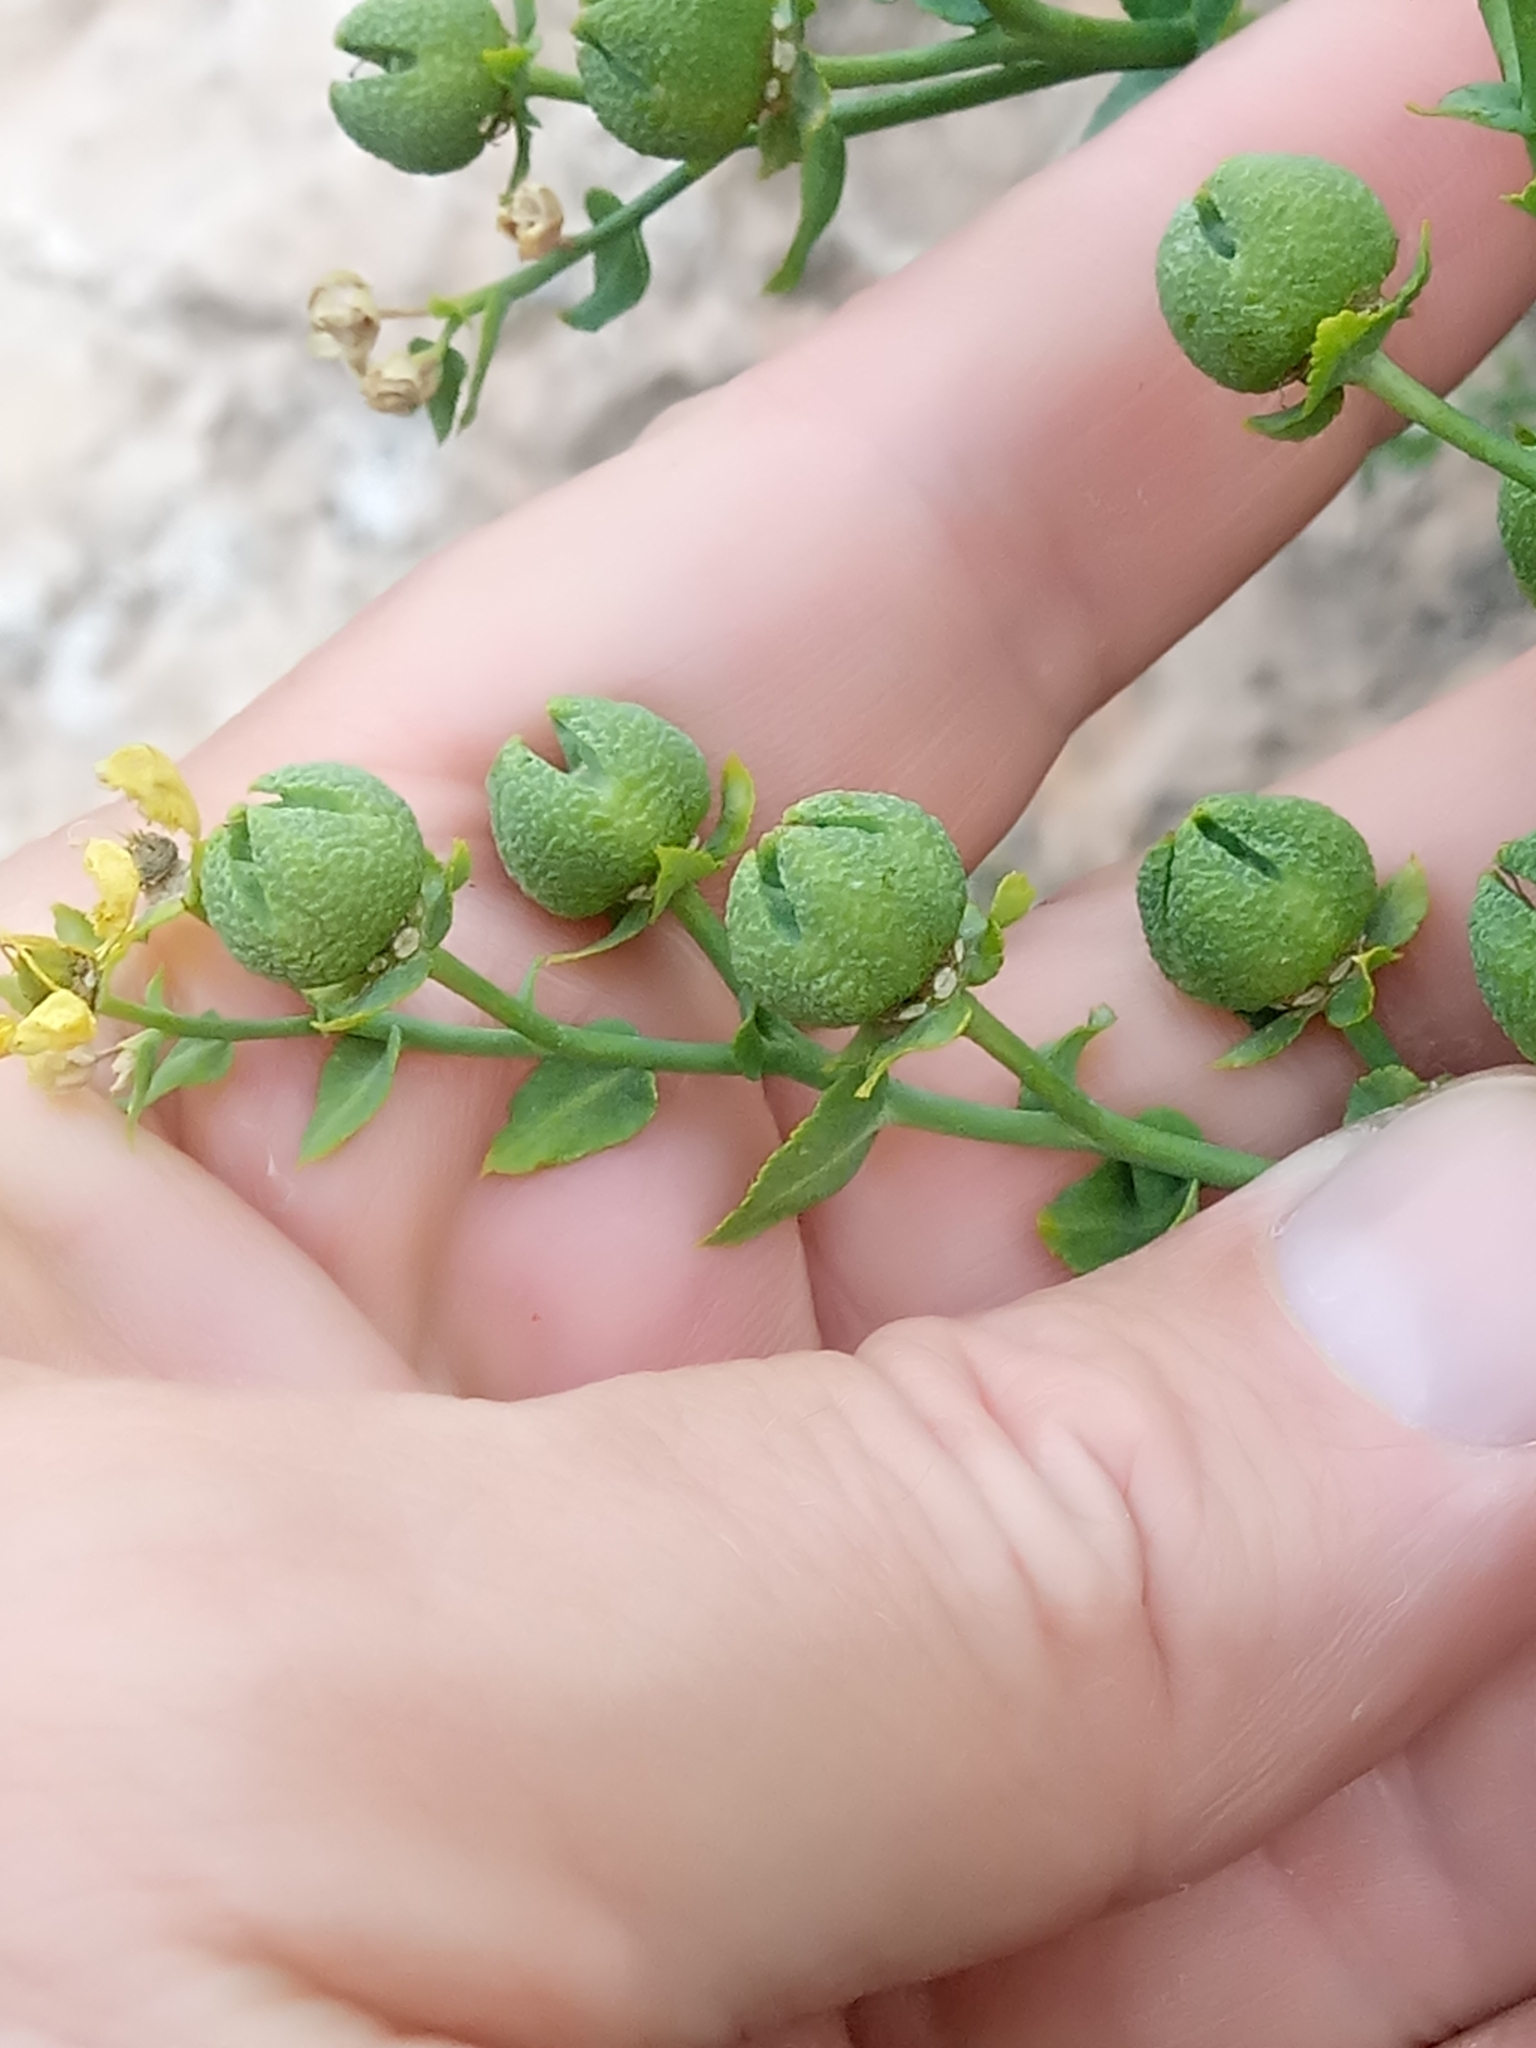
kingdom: Plantae
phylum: Tracheophyta
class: Magnoliopsida
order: Sapindales
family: Rutaceae
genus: Ruta
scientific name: Ruta chalepensis
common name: Fringed rue
